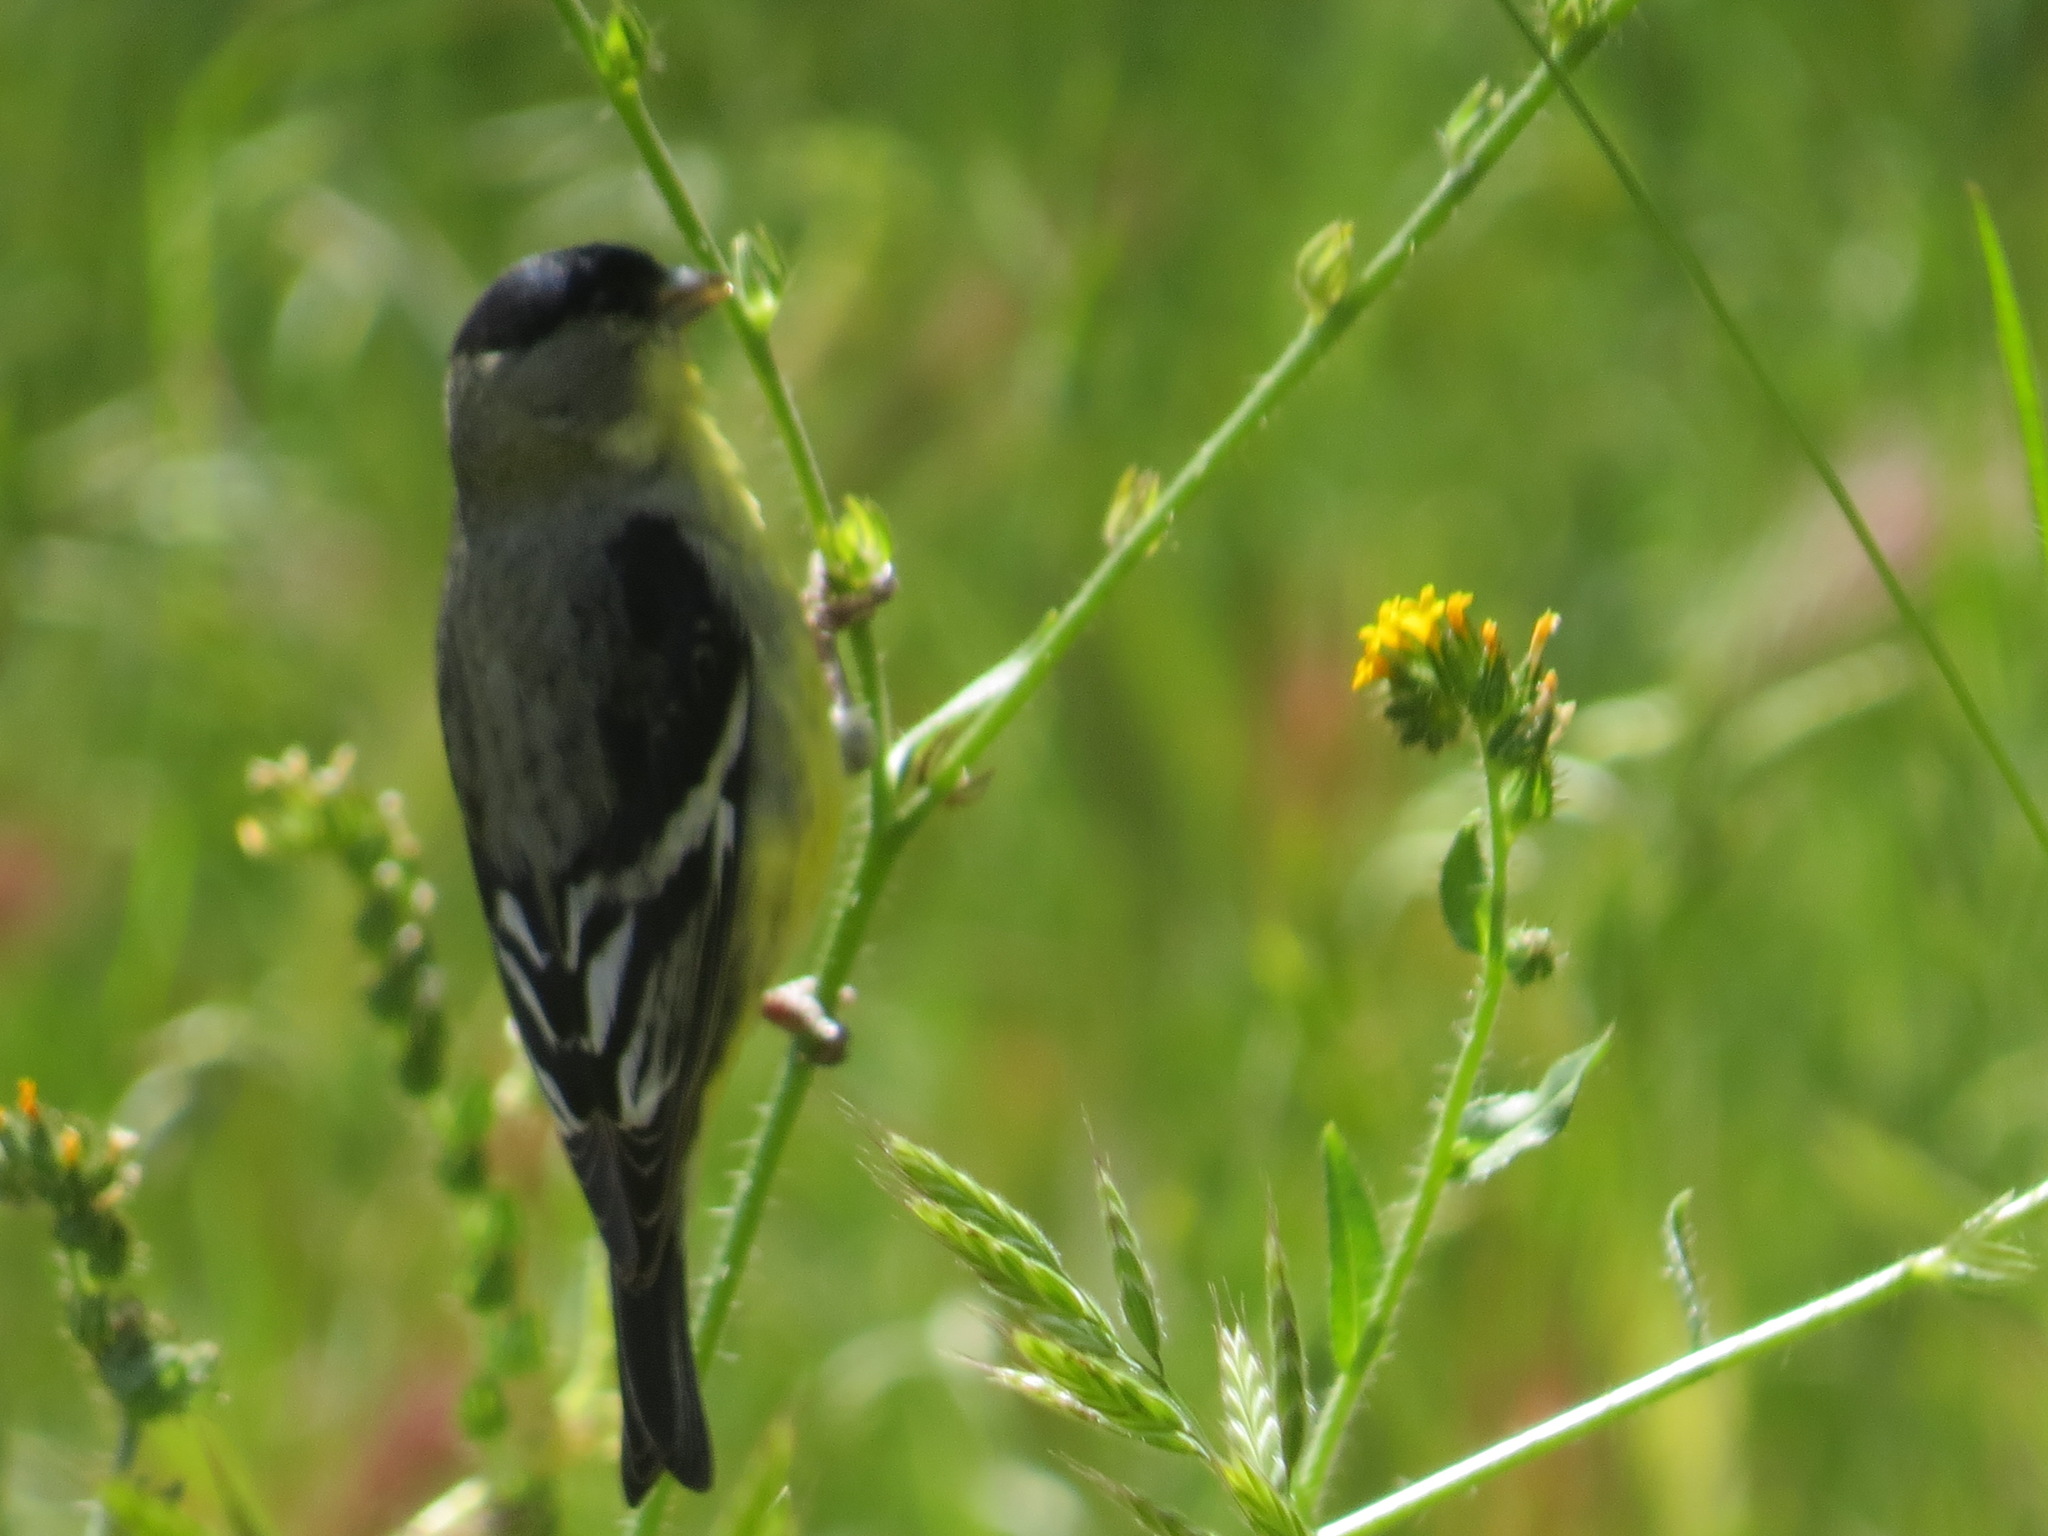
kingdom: Animalia
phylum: Chordata
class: Aves
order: Passeriformes
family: Fringillidae
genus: Spinus
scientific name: Spinus psaltria
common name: Lesser goldfinch
